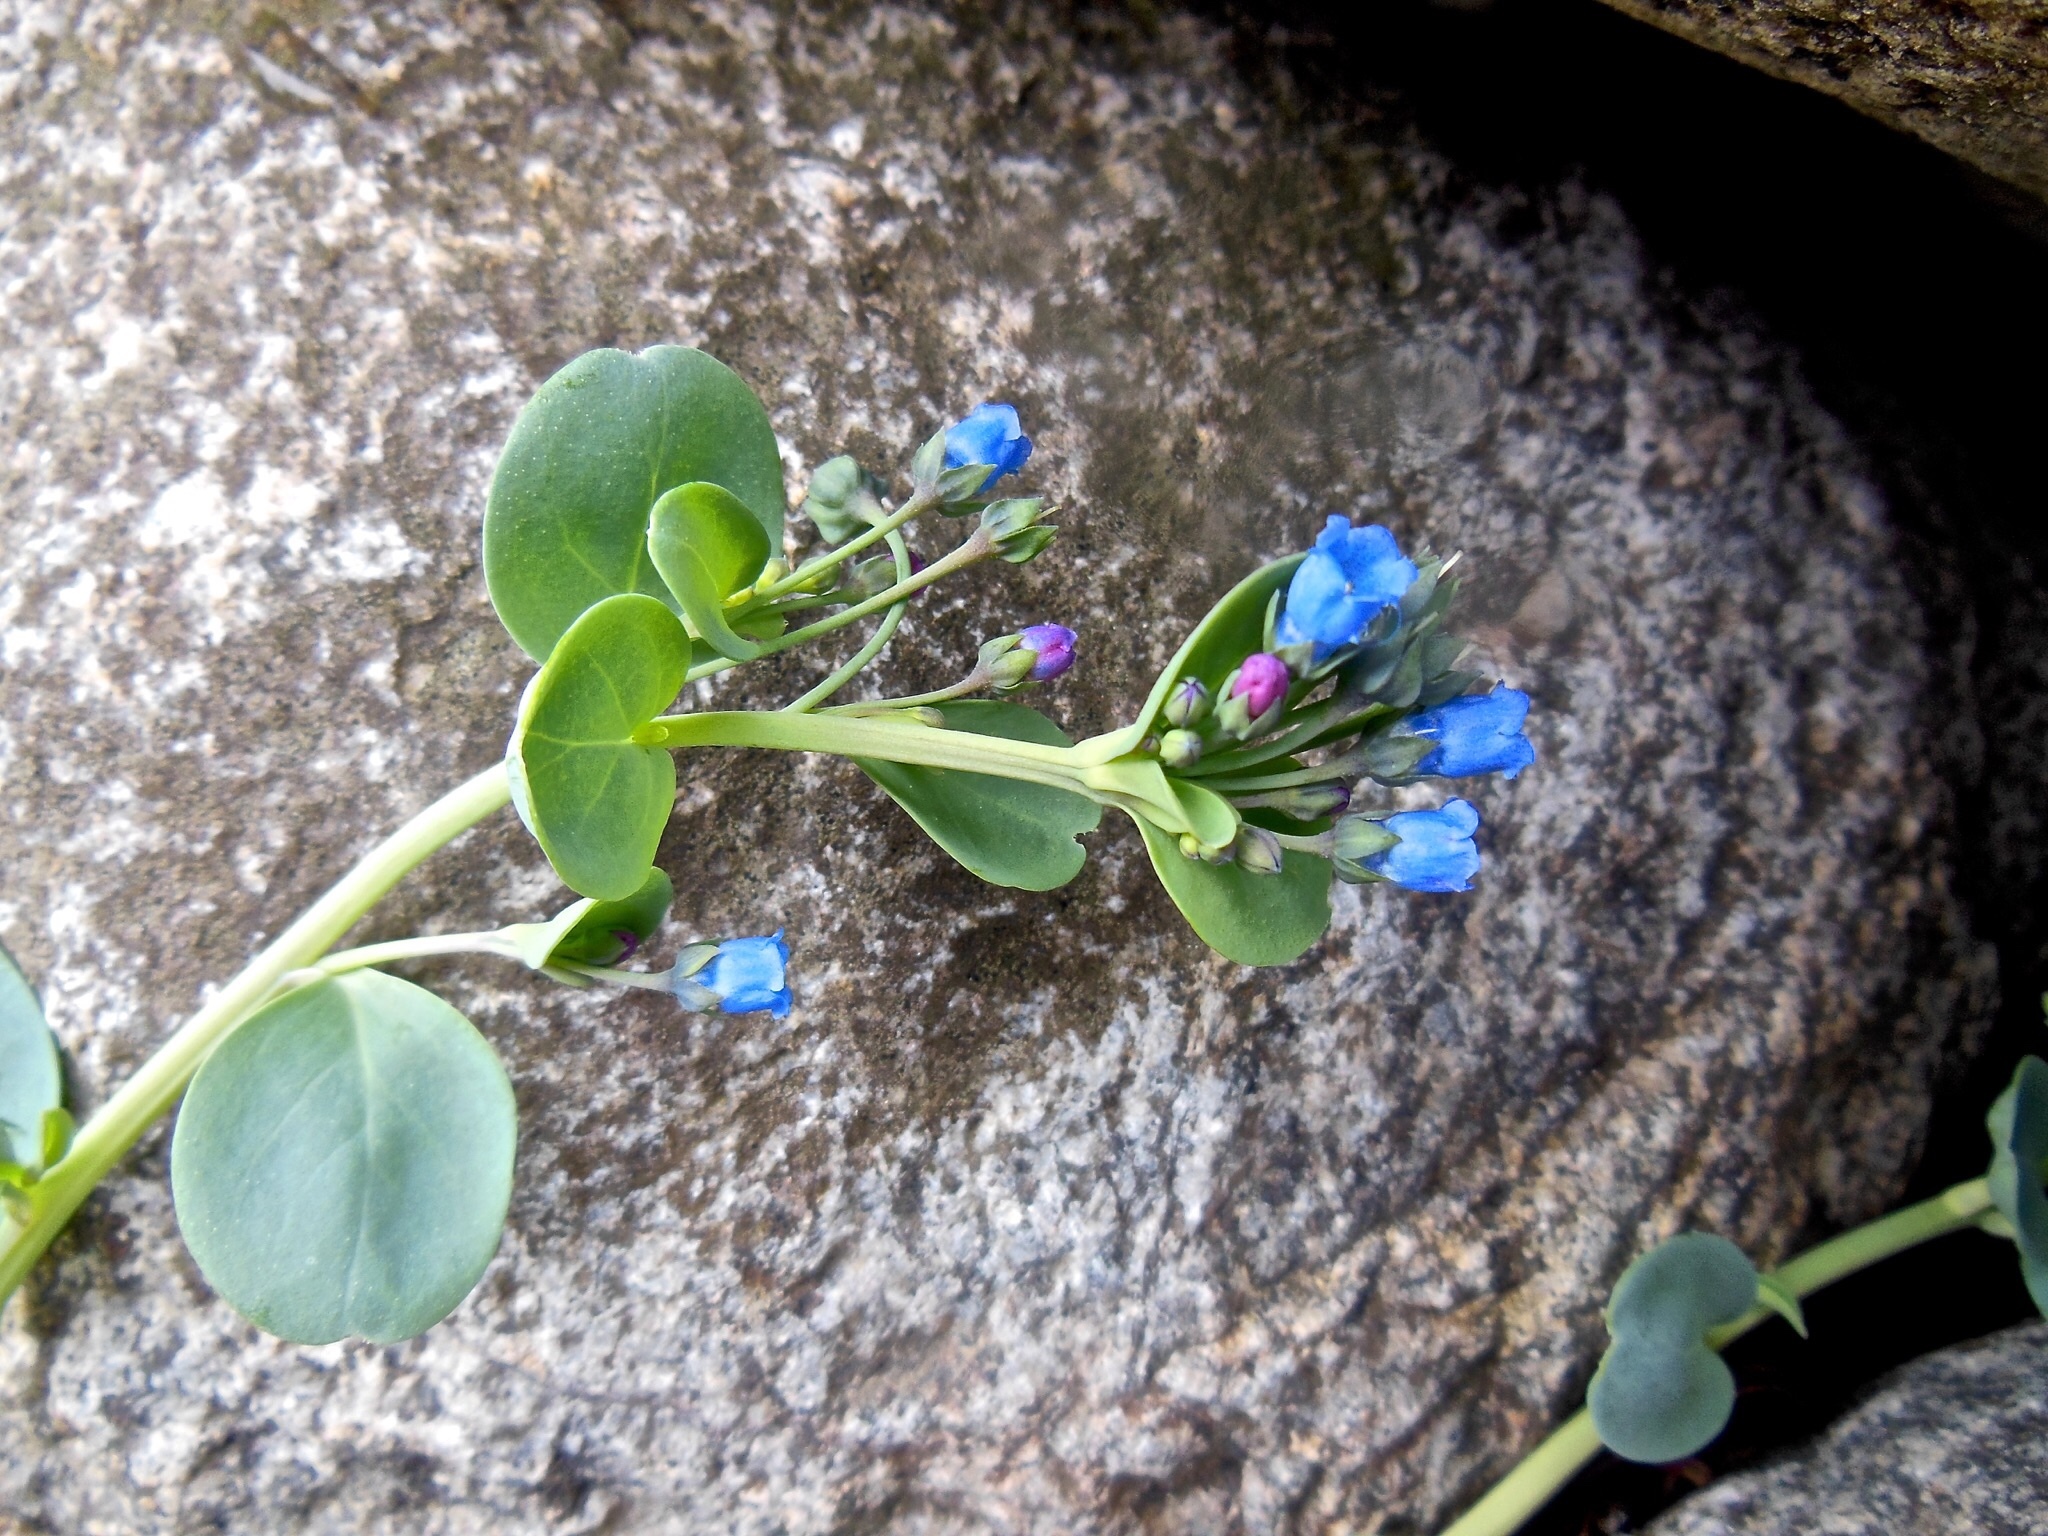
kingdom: Plantae
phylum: Tracheophyta
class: Magnoliopsida
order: Boraginales
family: Boraginaceae
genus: Mertensia
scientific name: Mertensia maritima
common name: Oysterplant
